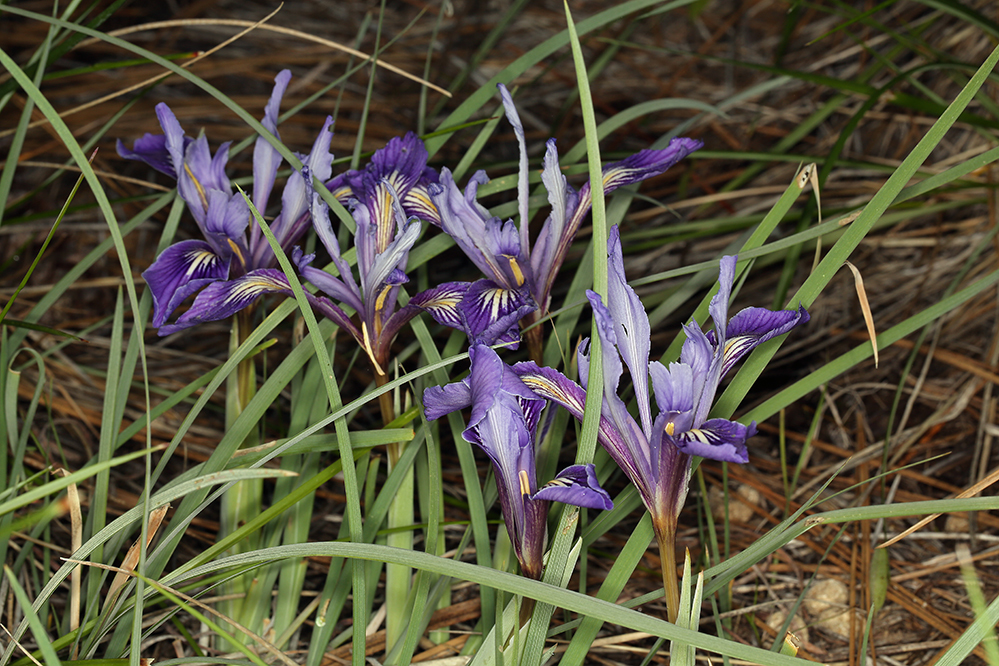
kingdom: Plantae
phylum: Tracheophyta
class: Liliopsida
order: Asparagales
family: Iridaceae
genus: Iris
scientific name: Iris macrosiphon
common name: Ground iris
